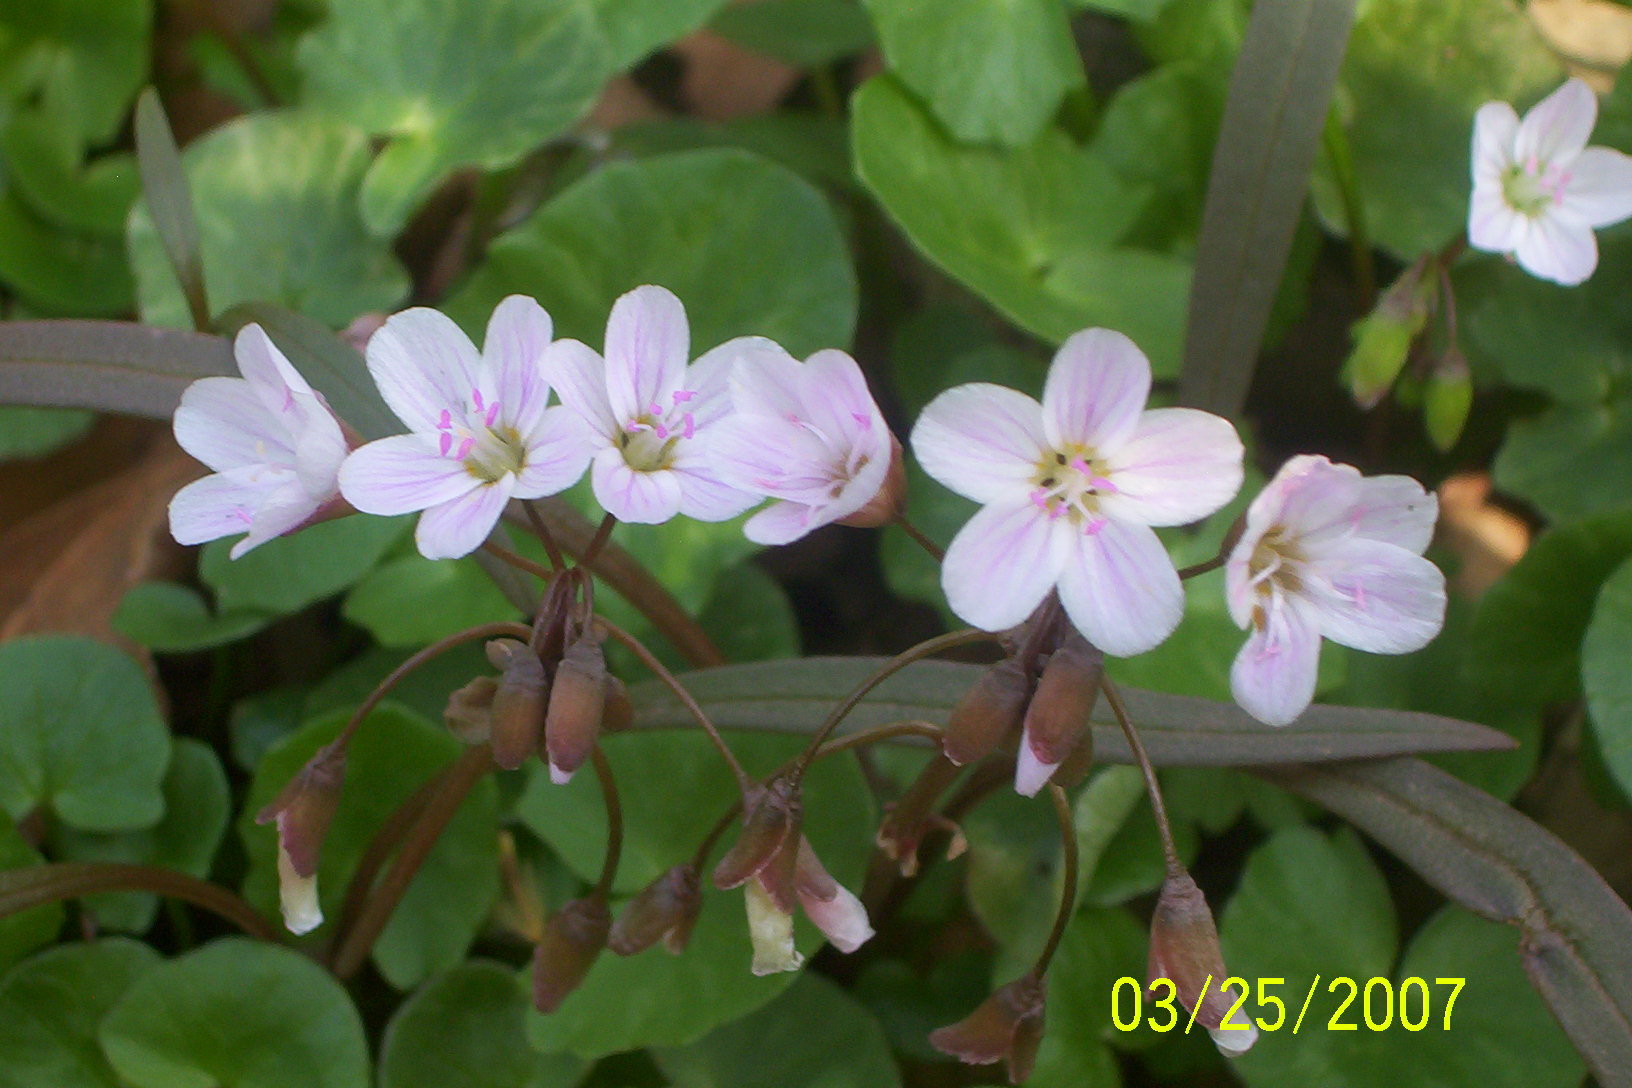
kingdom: Plantae
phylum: Tracheophyta
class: Magnoliopsida
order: Caryophyllales
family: Montiaceae
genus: Claytonia
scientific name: Claytonia virginica
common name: Virginia springbeauty
